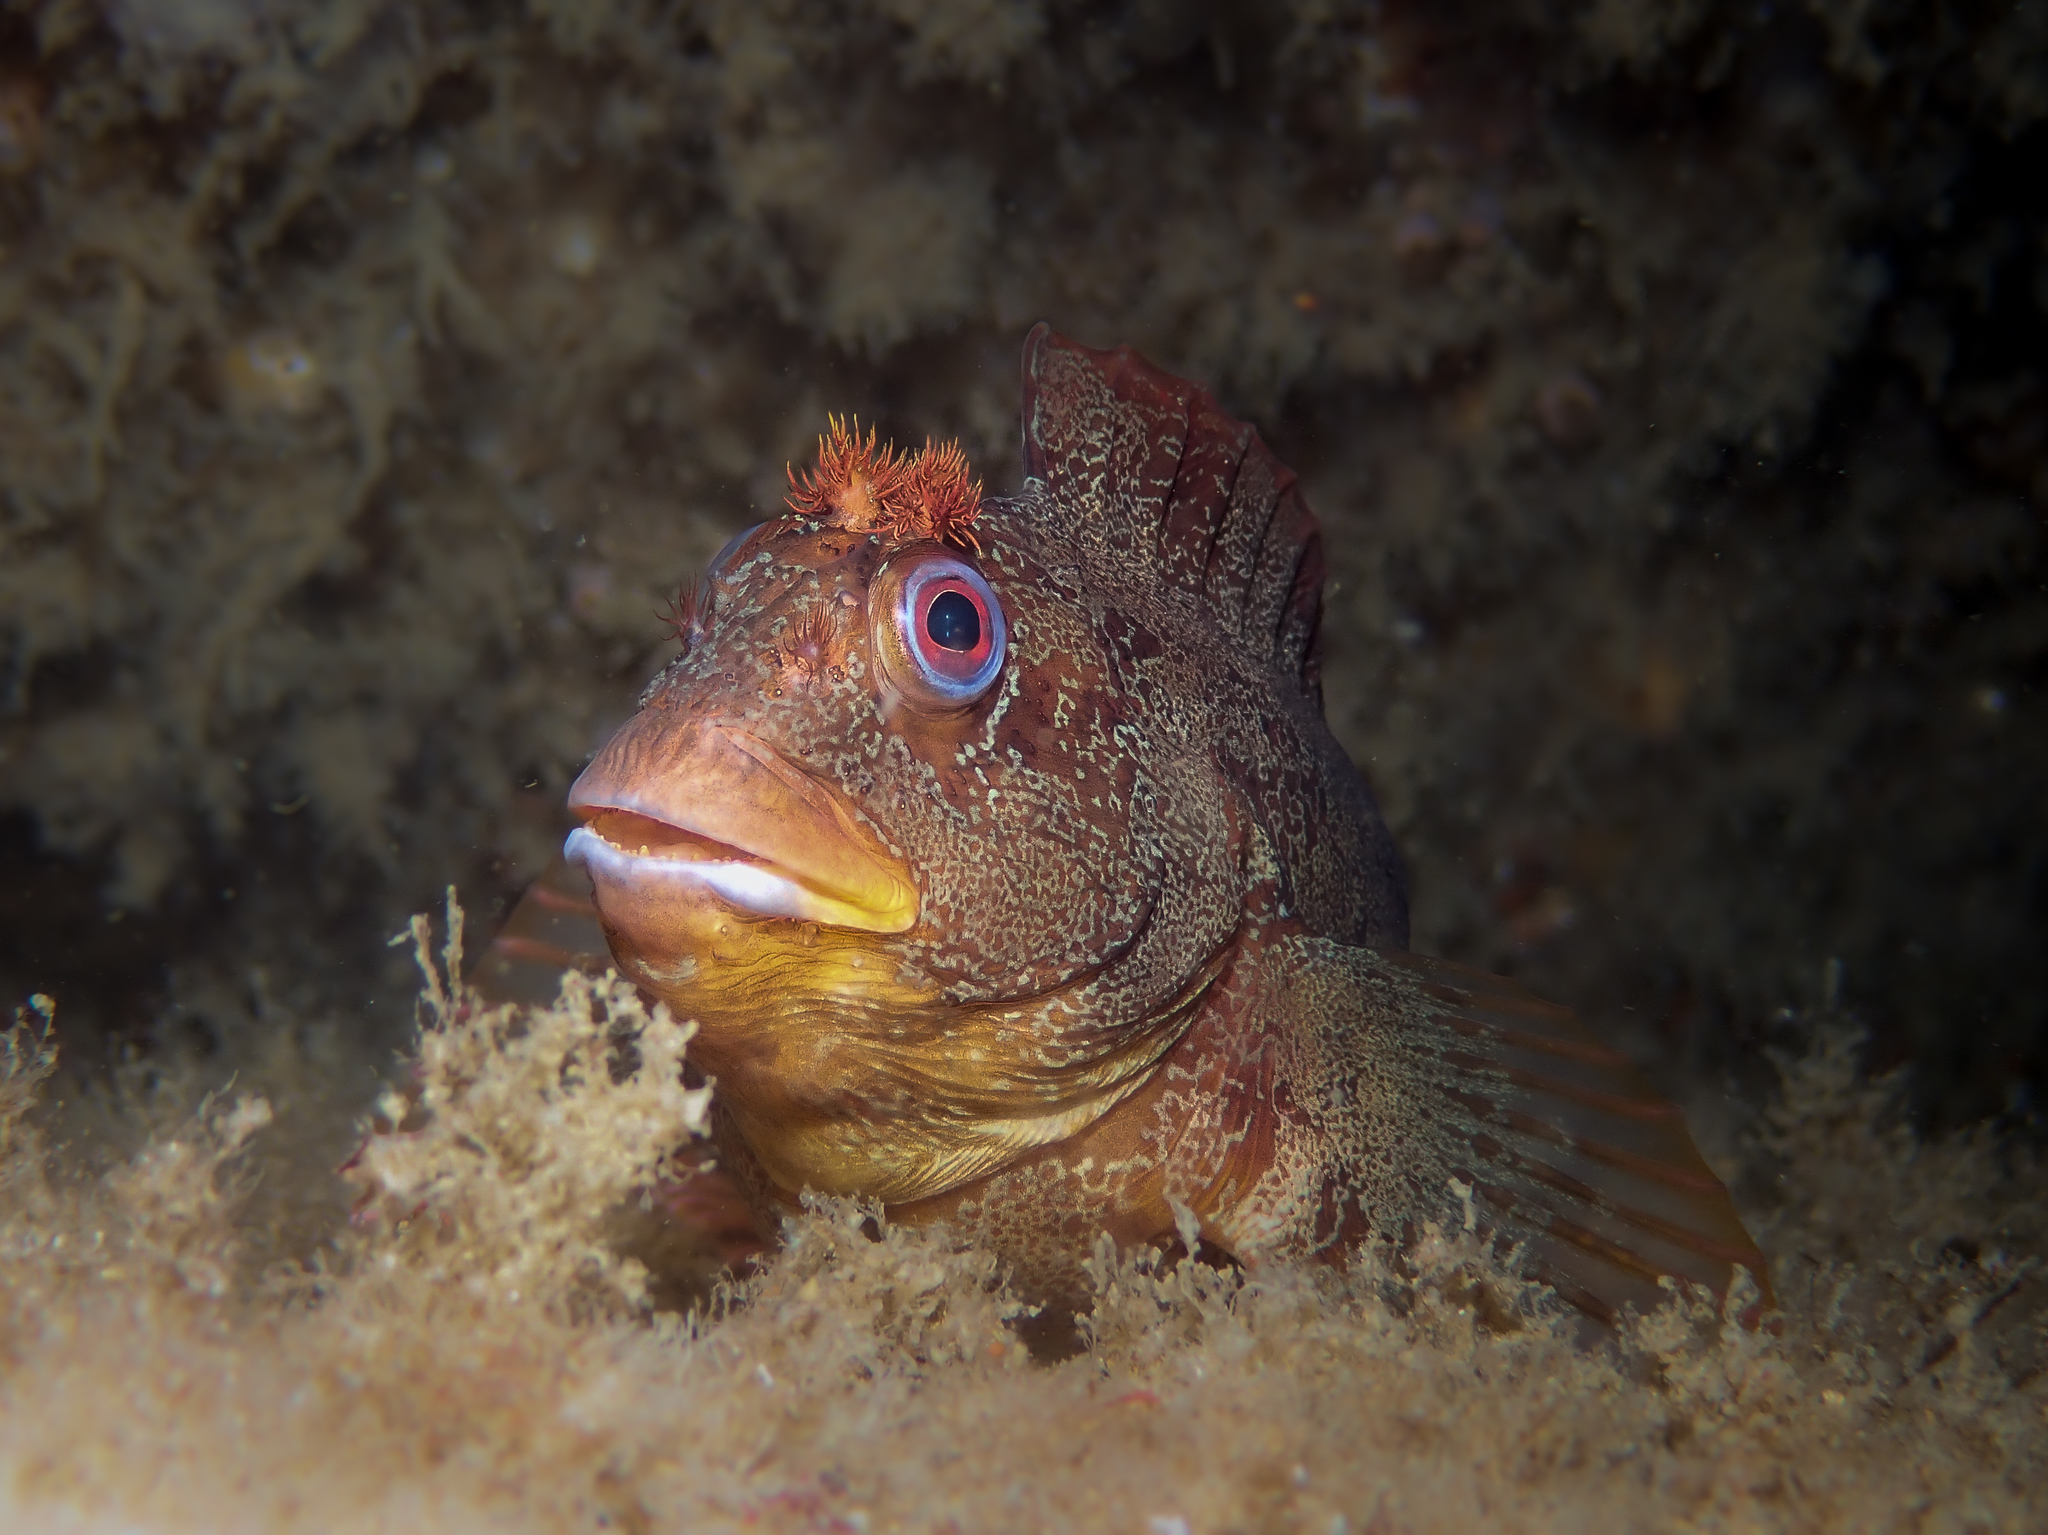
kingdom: Animalia
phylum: Chordata
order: Perciformes
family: Blenniidae
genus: Parablennius
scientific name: Parablennius gattorugine
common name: Tompot blenny
